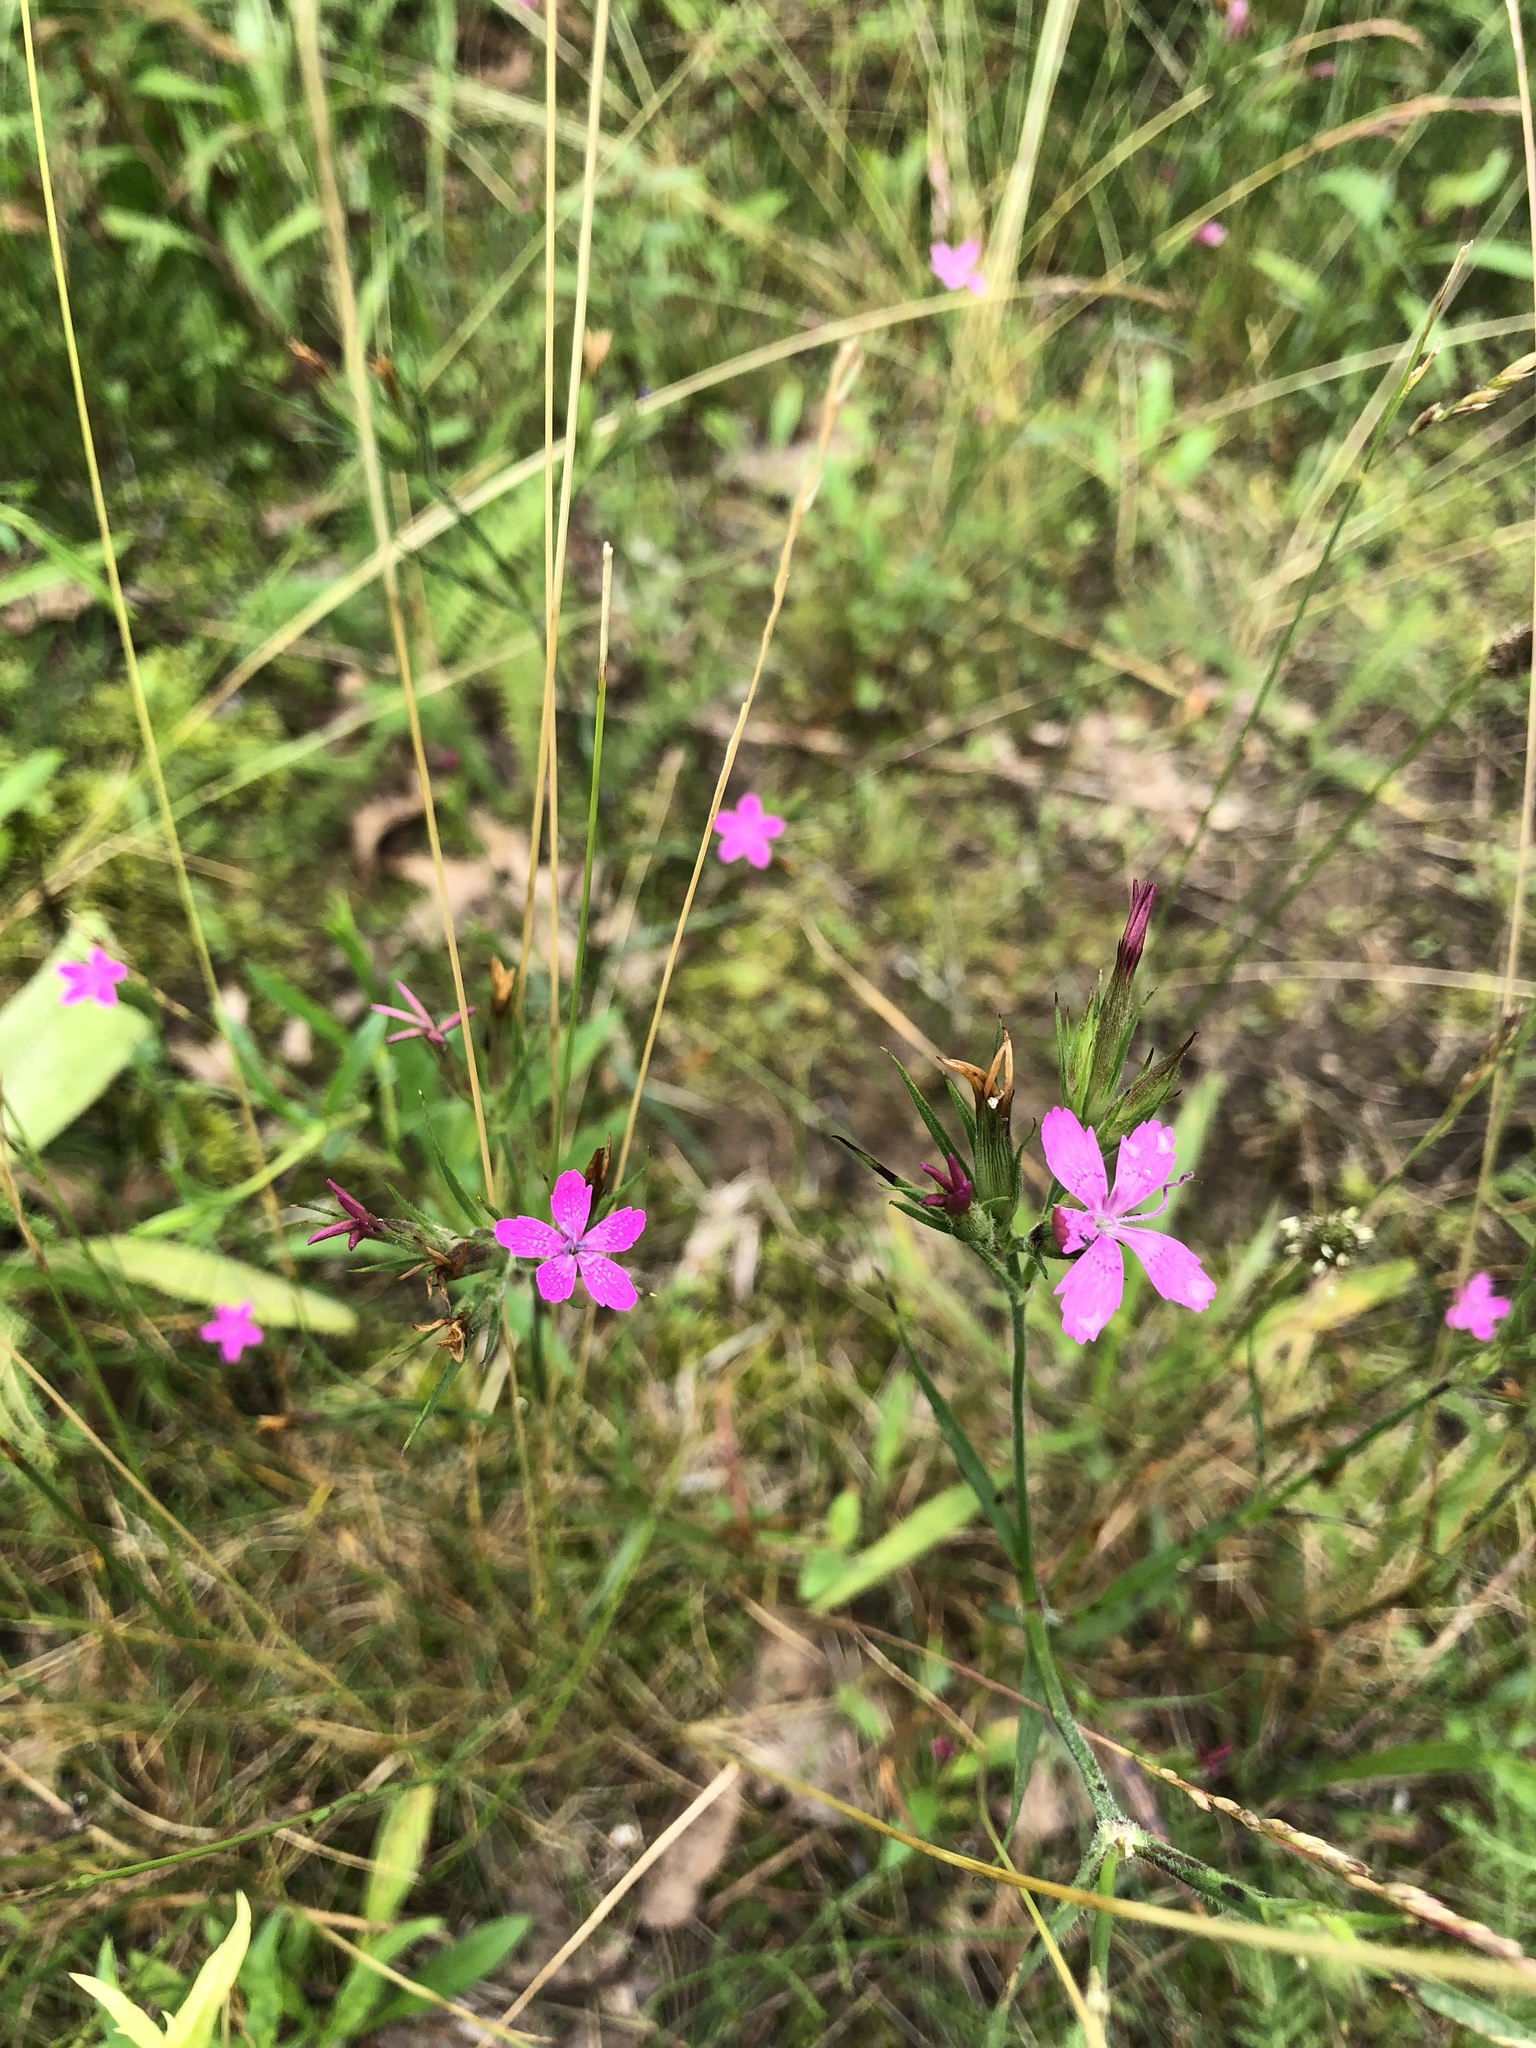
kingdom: Plantae
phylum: Tracheophyta
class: Magnoliopsida
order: Caryophyllales
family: Caryophyllaceae
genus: Dianthus
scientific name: Dianthus armeria
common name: Deptford pink
